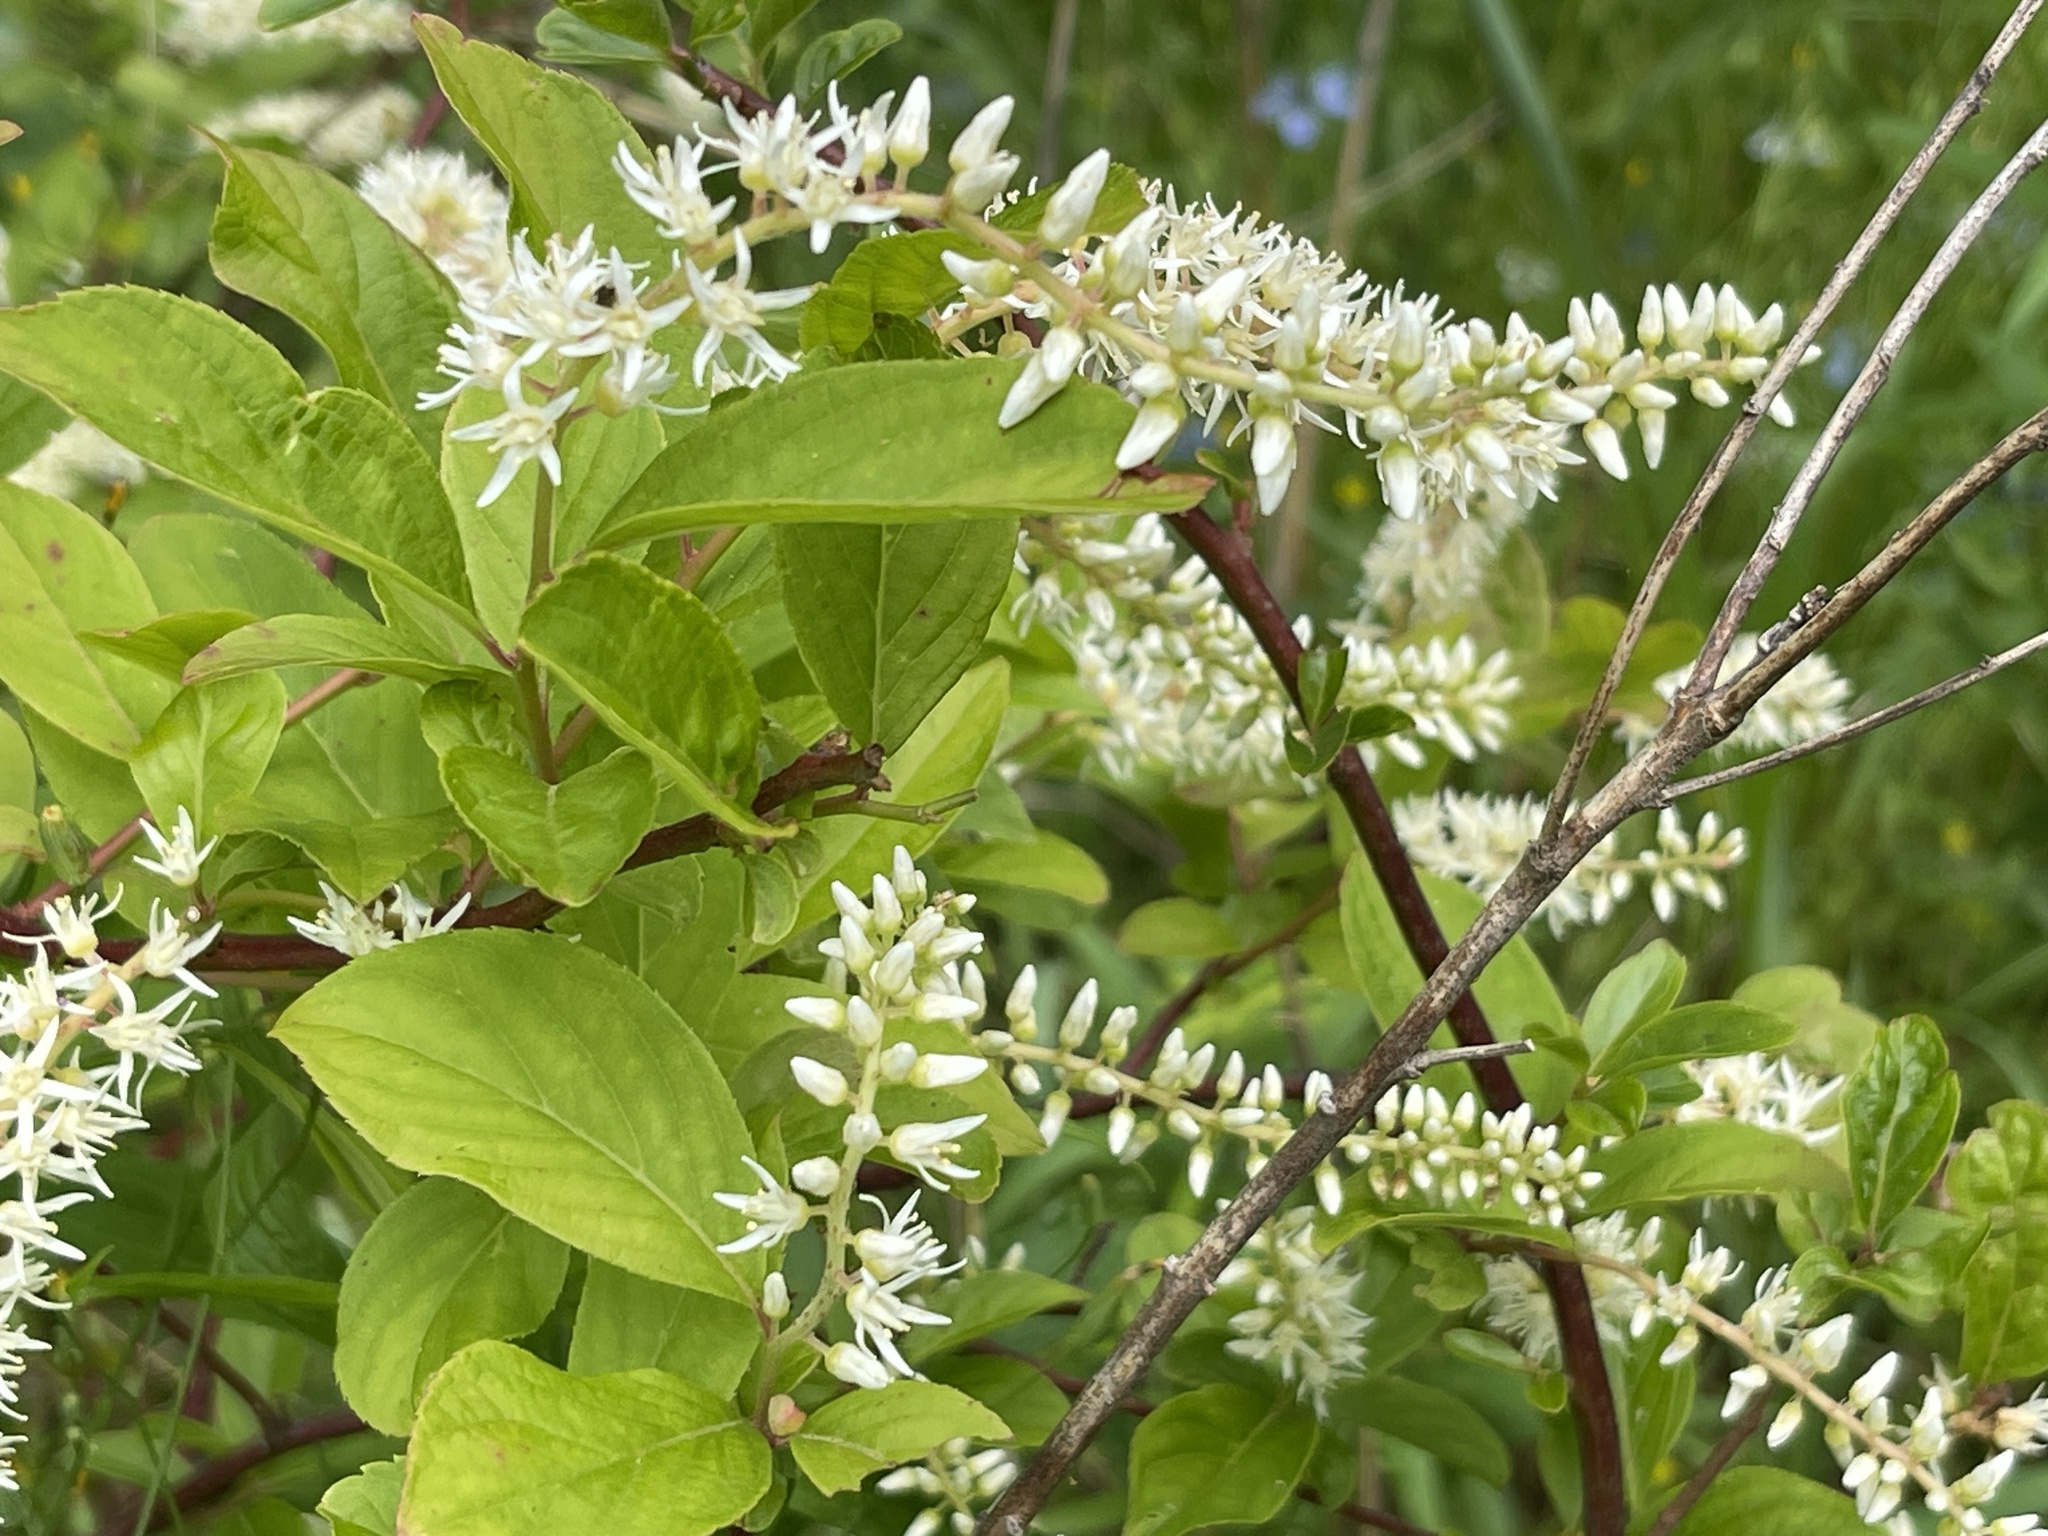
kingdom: Plantae
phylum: Tracheophyta
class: Magnoliopsida
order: Saxifragales
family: Iteaceae
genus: Itea
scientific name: Itea virginica
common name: Sweetspire
